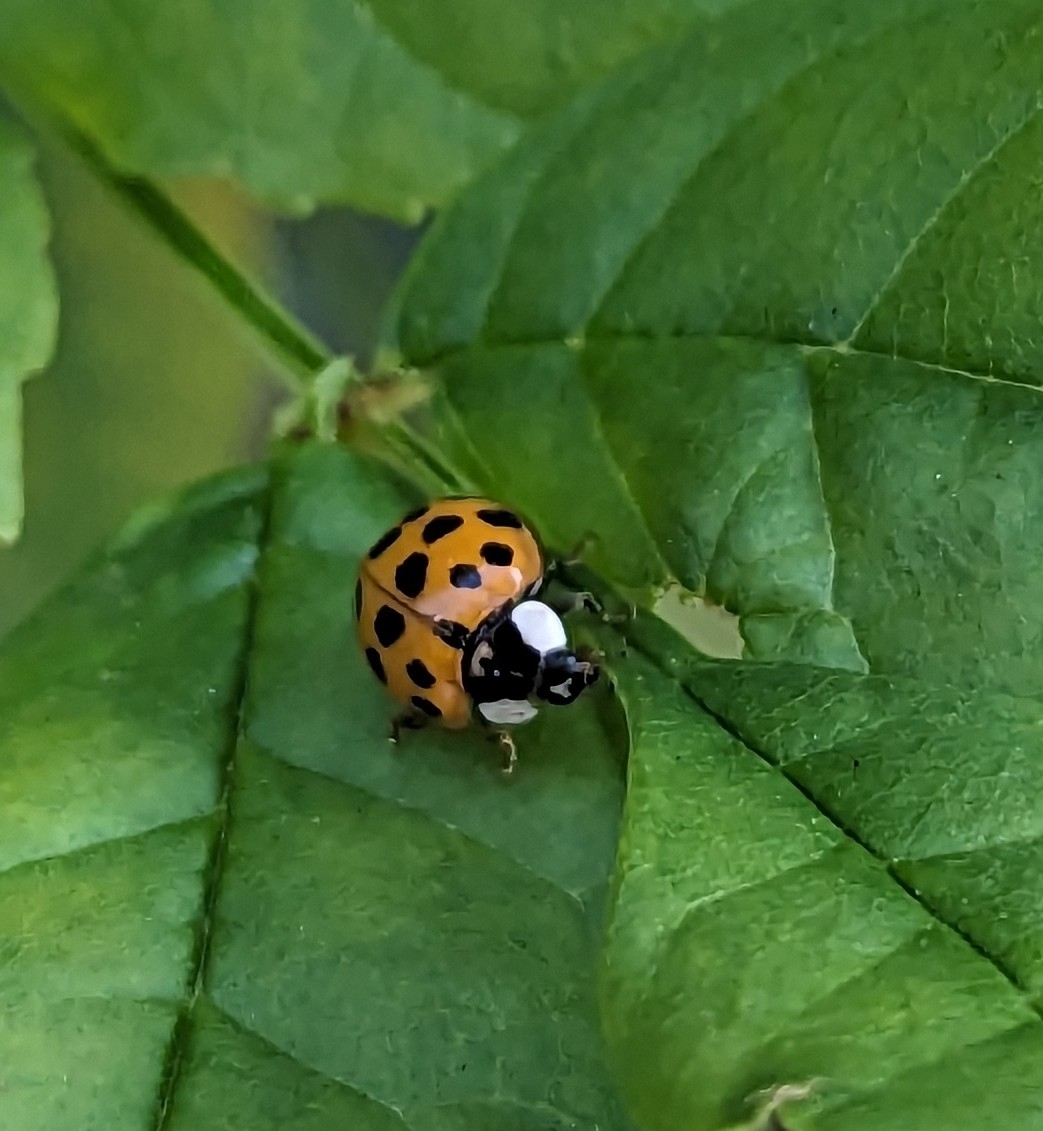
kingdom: Animalia
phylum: Arthropoda
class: Insecta
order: Coleoptera
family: Coccinellidae
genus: Harmonia
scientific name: Harmonia axyridis
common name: Harlequin ladybird
